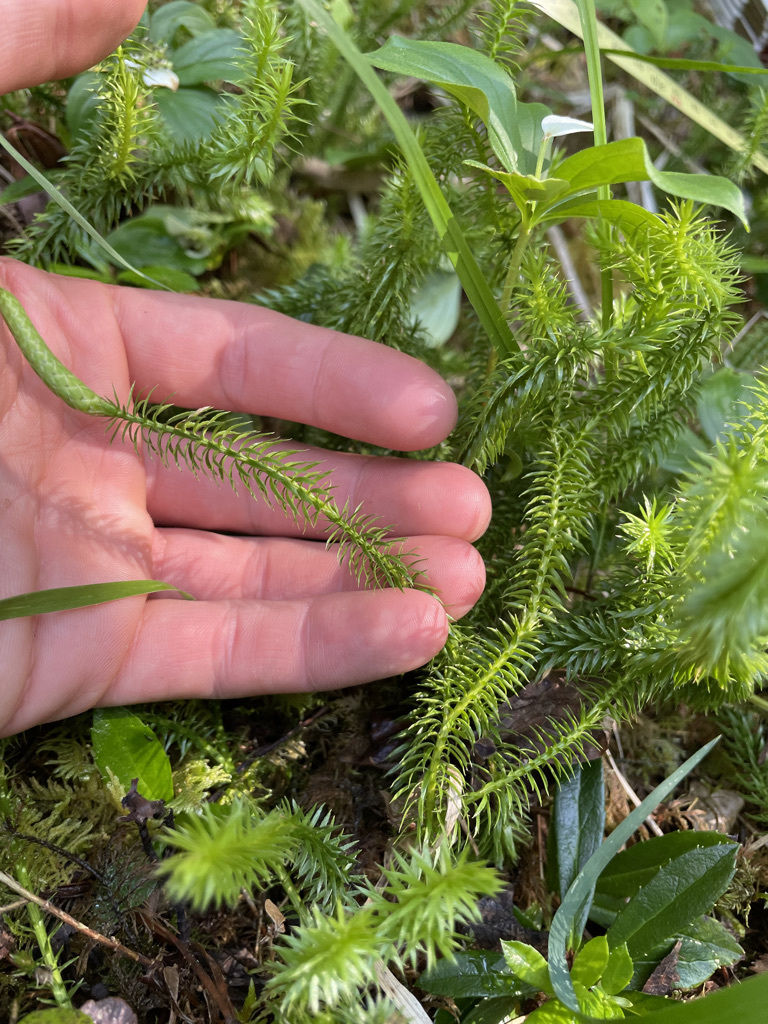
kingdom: Plantae
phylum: Tracheophyta
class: Lycopodiopsida
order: Lycopodiales
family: Lycopodiaceae
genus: Spinulum
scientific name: Spinulum annotinum
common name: Interrupted club-moss
